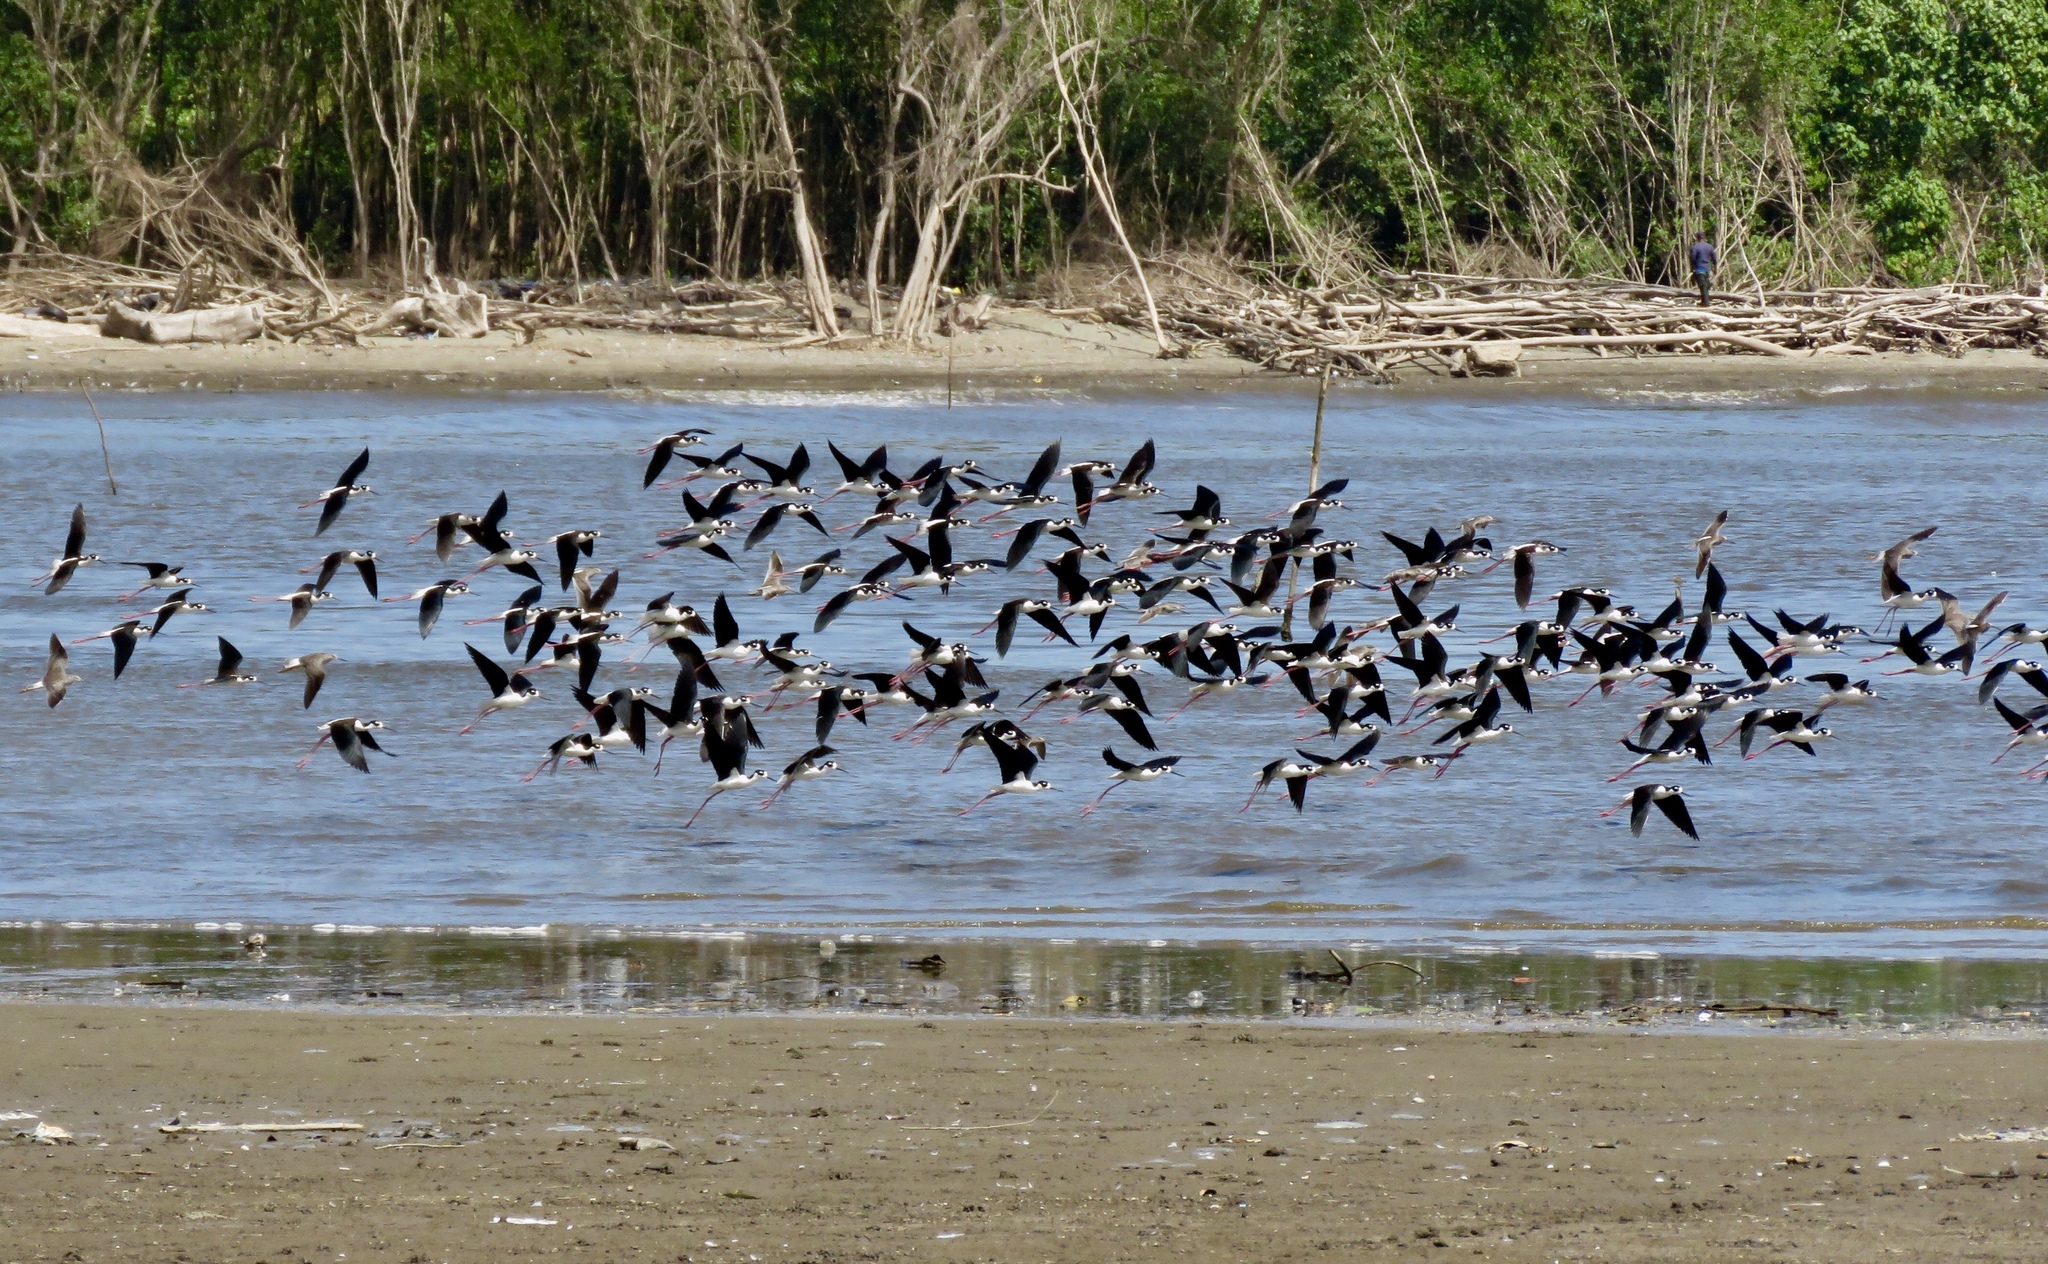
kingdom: Animalia
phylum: Chordata
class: Aves
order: Charadriiformes
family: Recurvirostridae
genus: Himantopus
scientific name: Himantopus mexicanus
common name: Black-necked stilt
